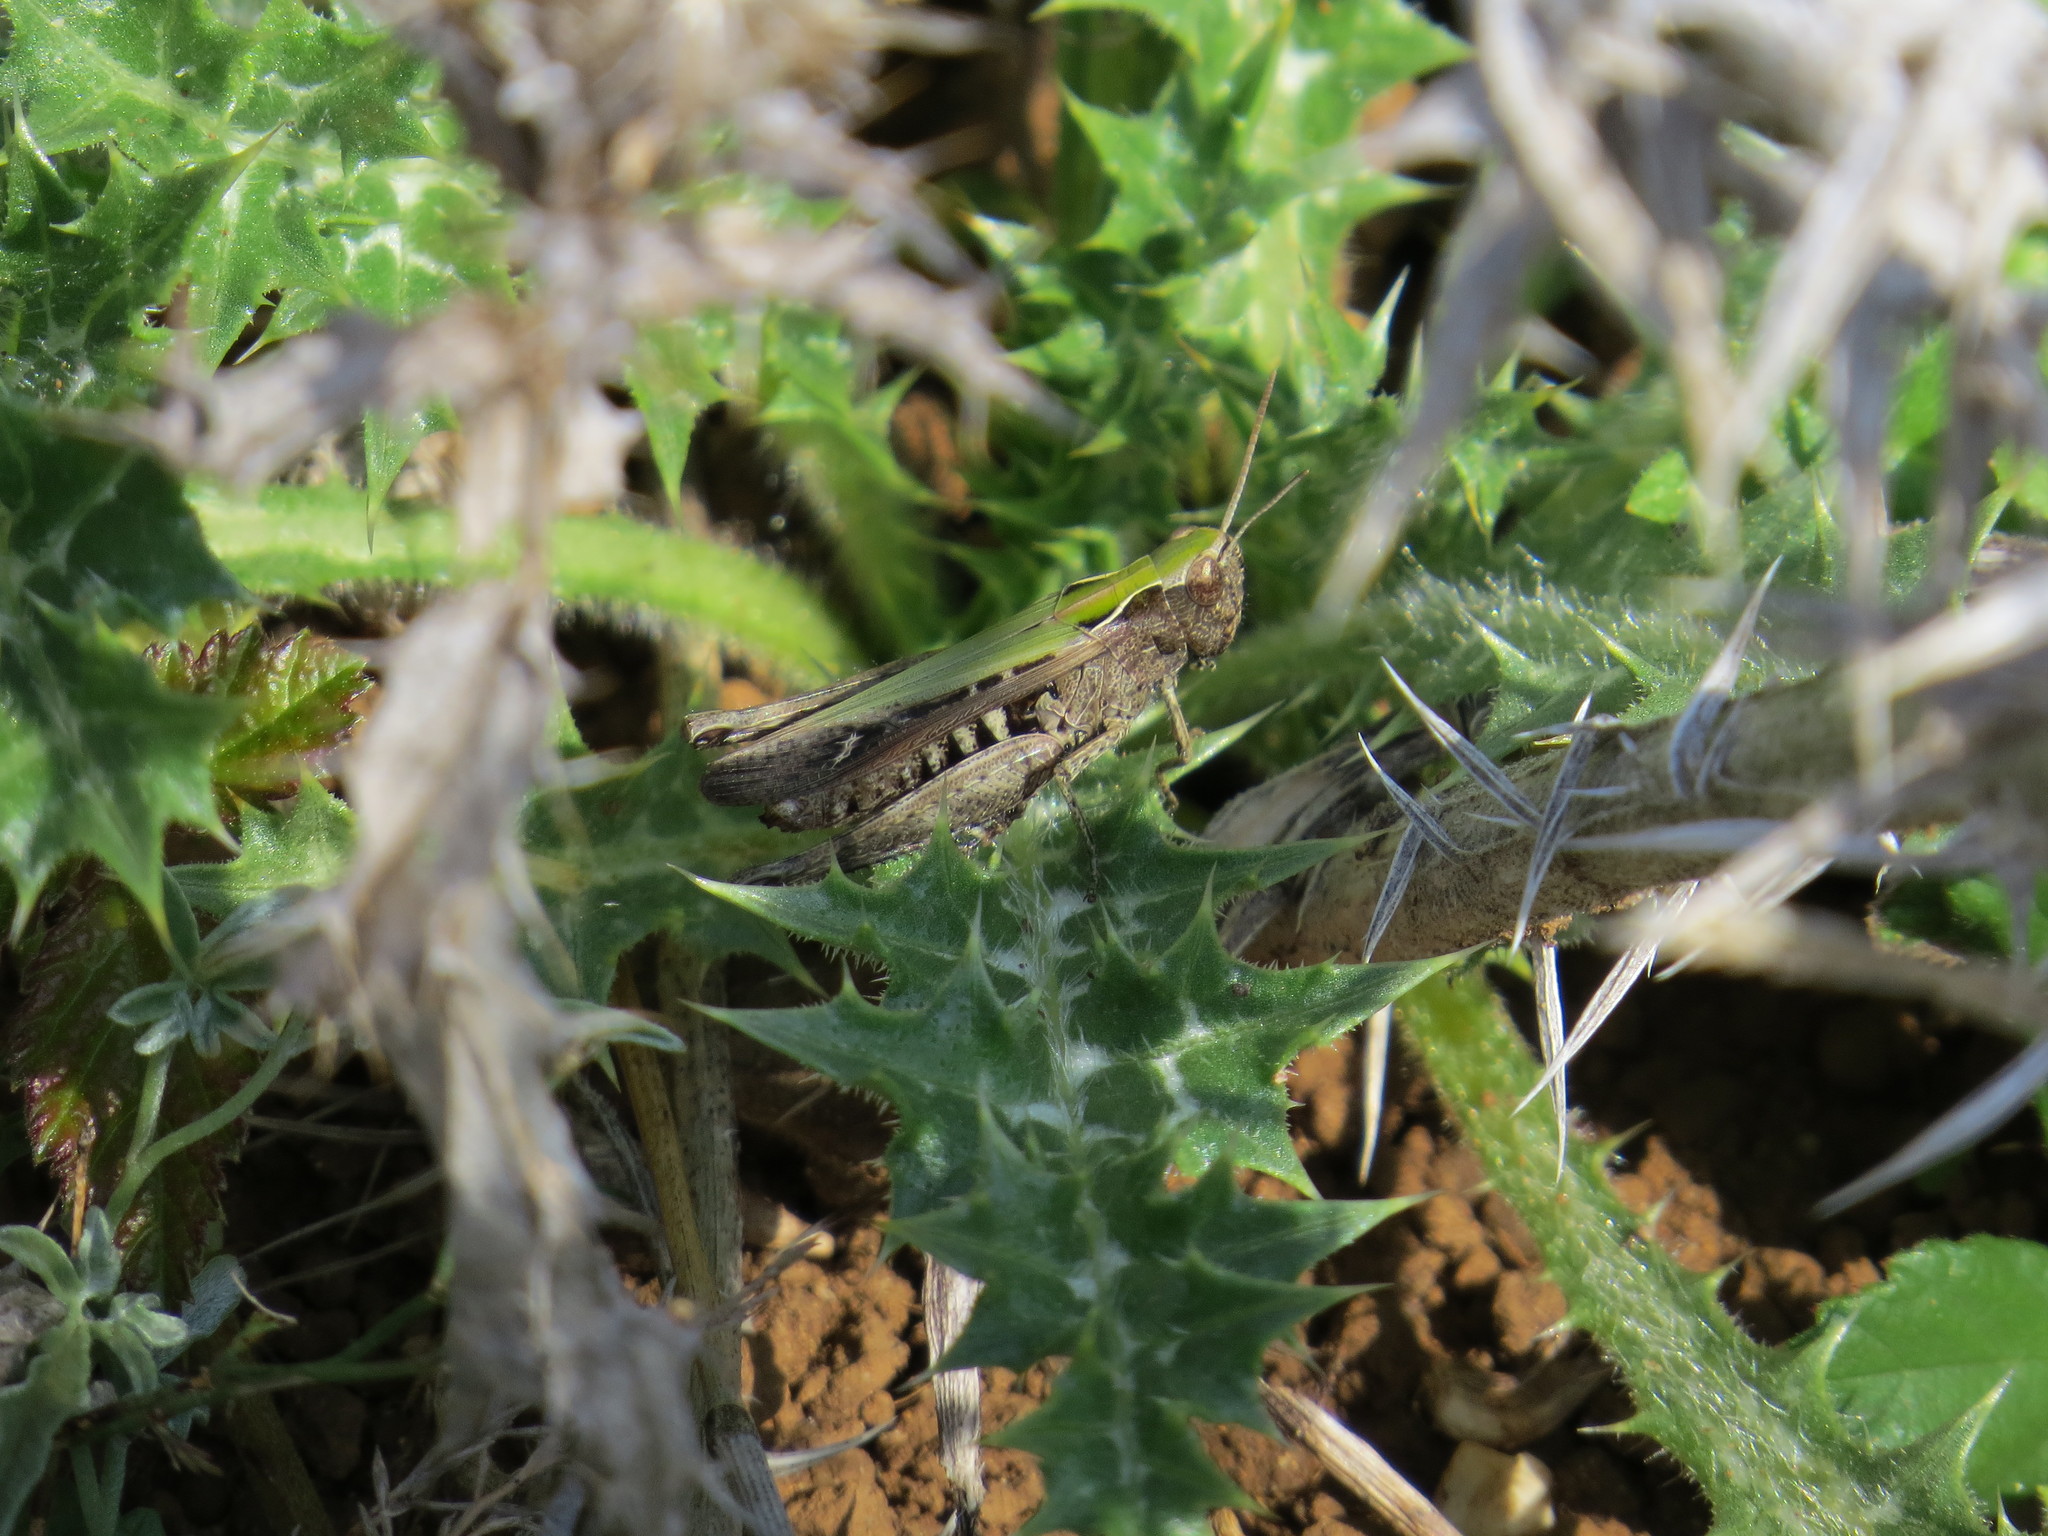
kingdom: Animalia
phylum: Arthropoda
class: Insecta
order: Orthoptera
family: Acrididae
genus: Omocestus
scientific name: Omocestus rufipes
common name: Woodland grasshopper
